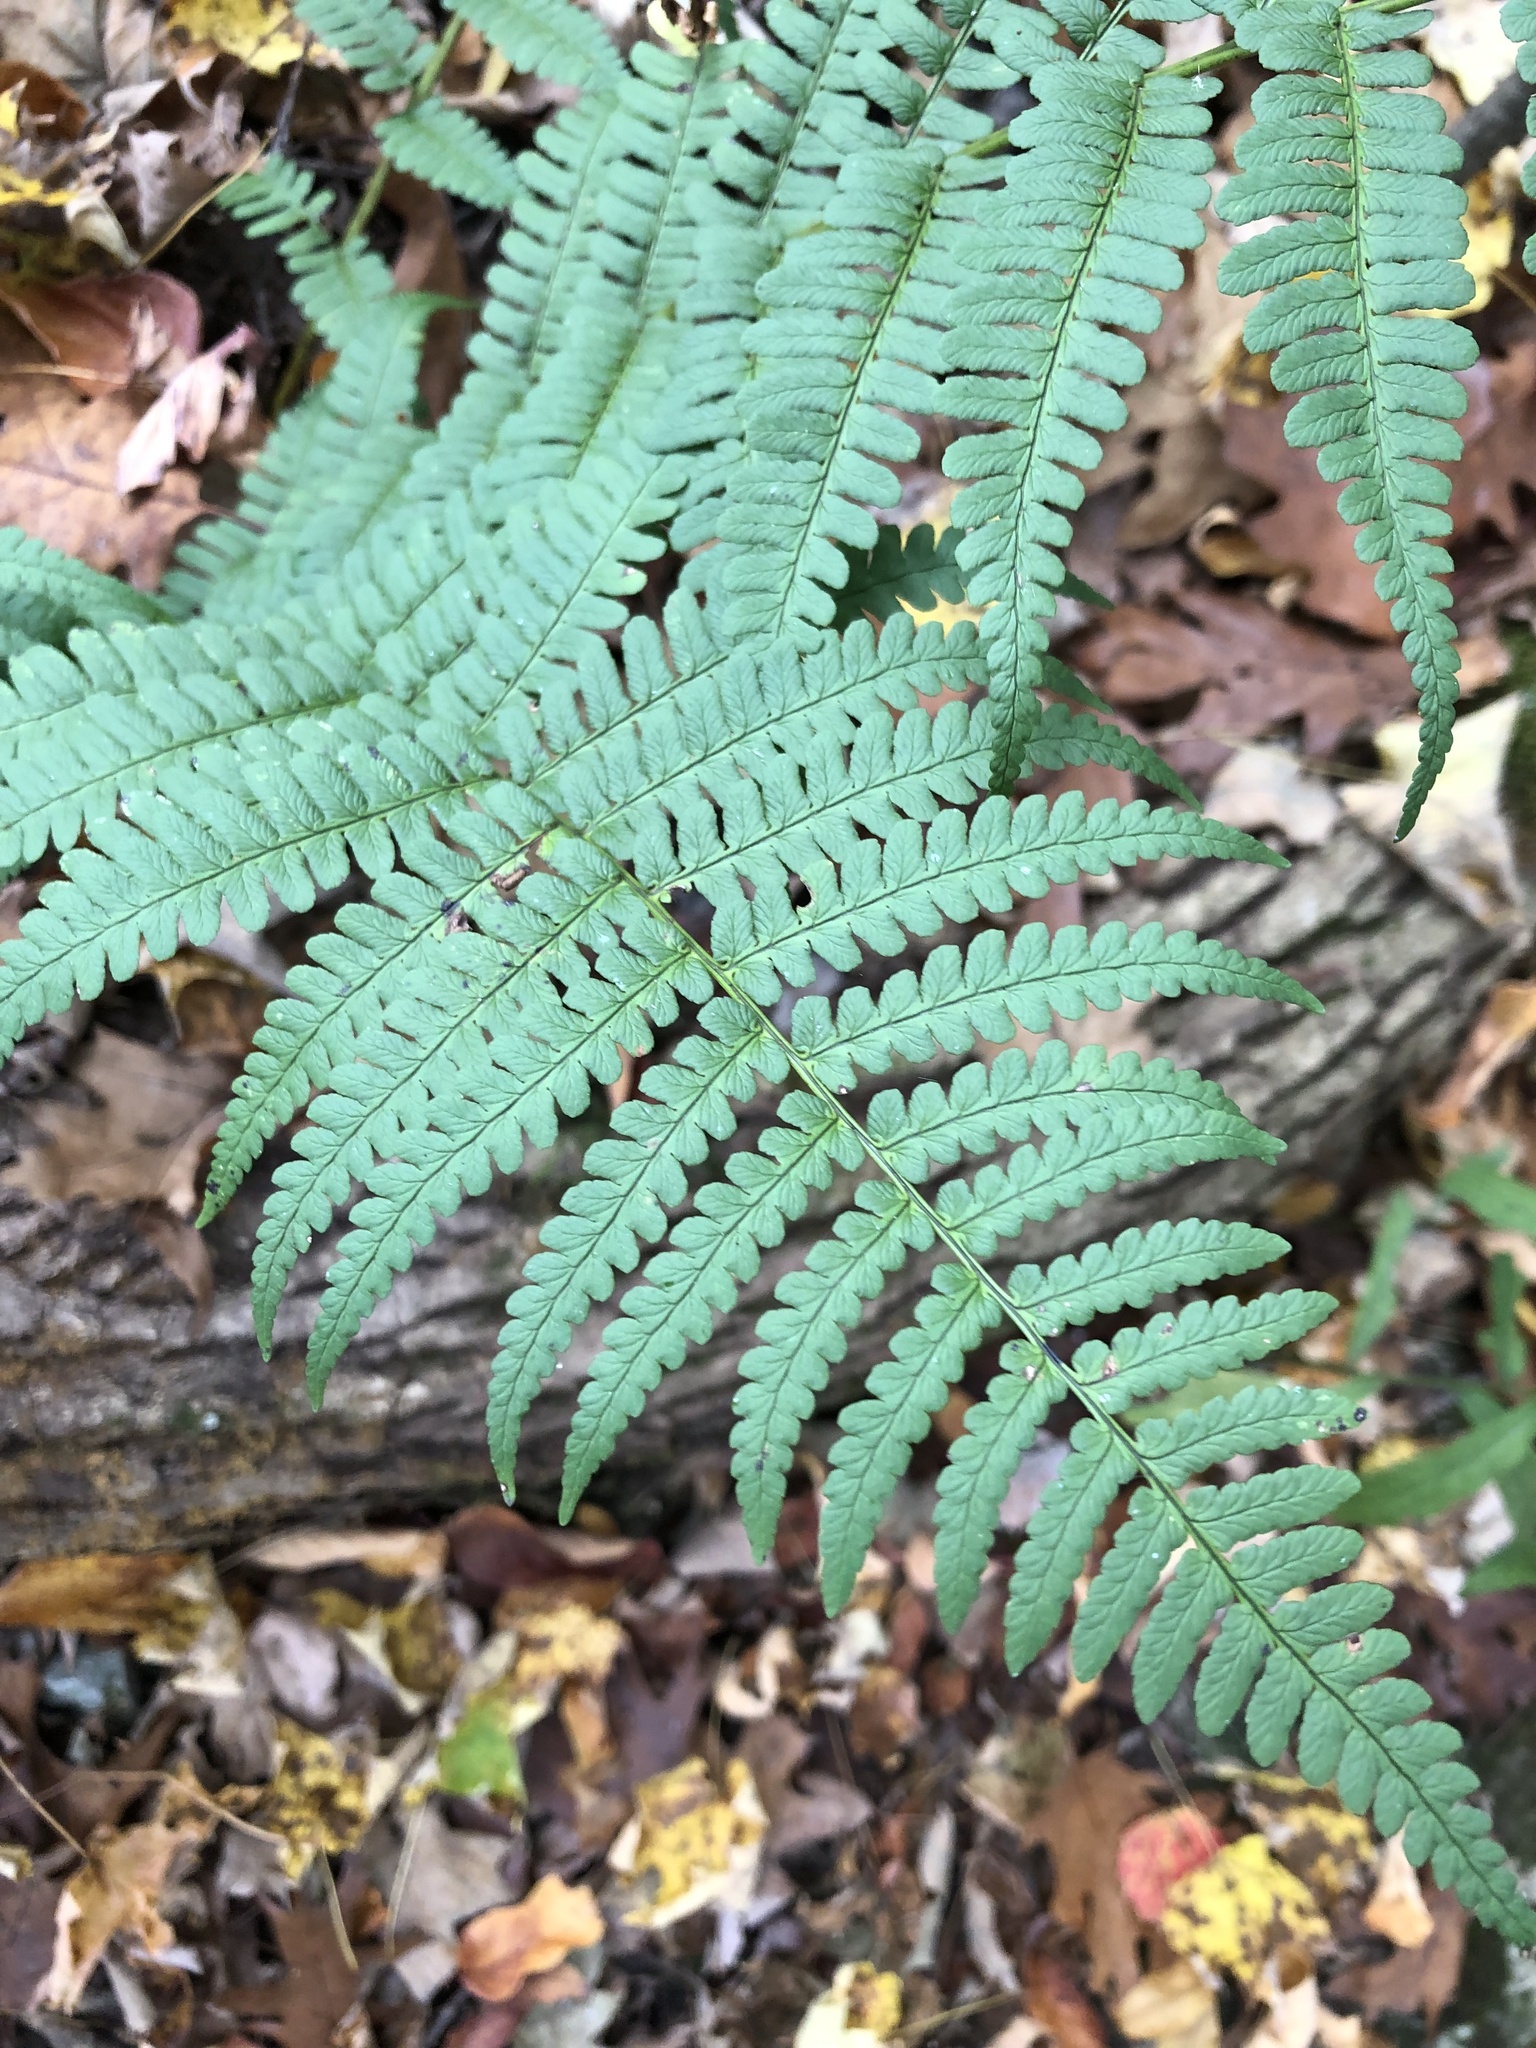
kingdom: Plantae
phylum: Tracheophyta
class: Polypodiopsida
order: Polypodiales
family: Dryopteridaceae
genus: Dryopteris
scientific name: Dryopteris marginalis
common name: Marginal wood fern
